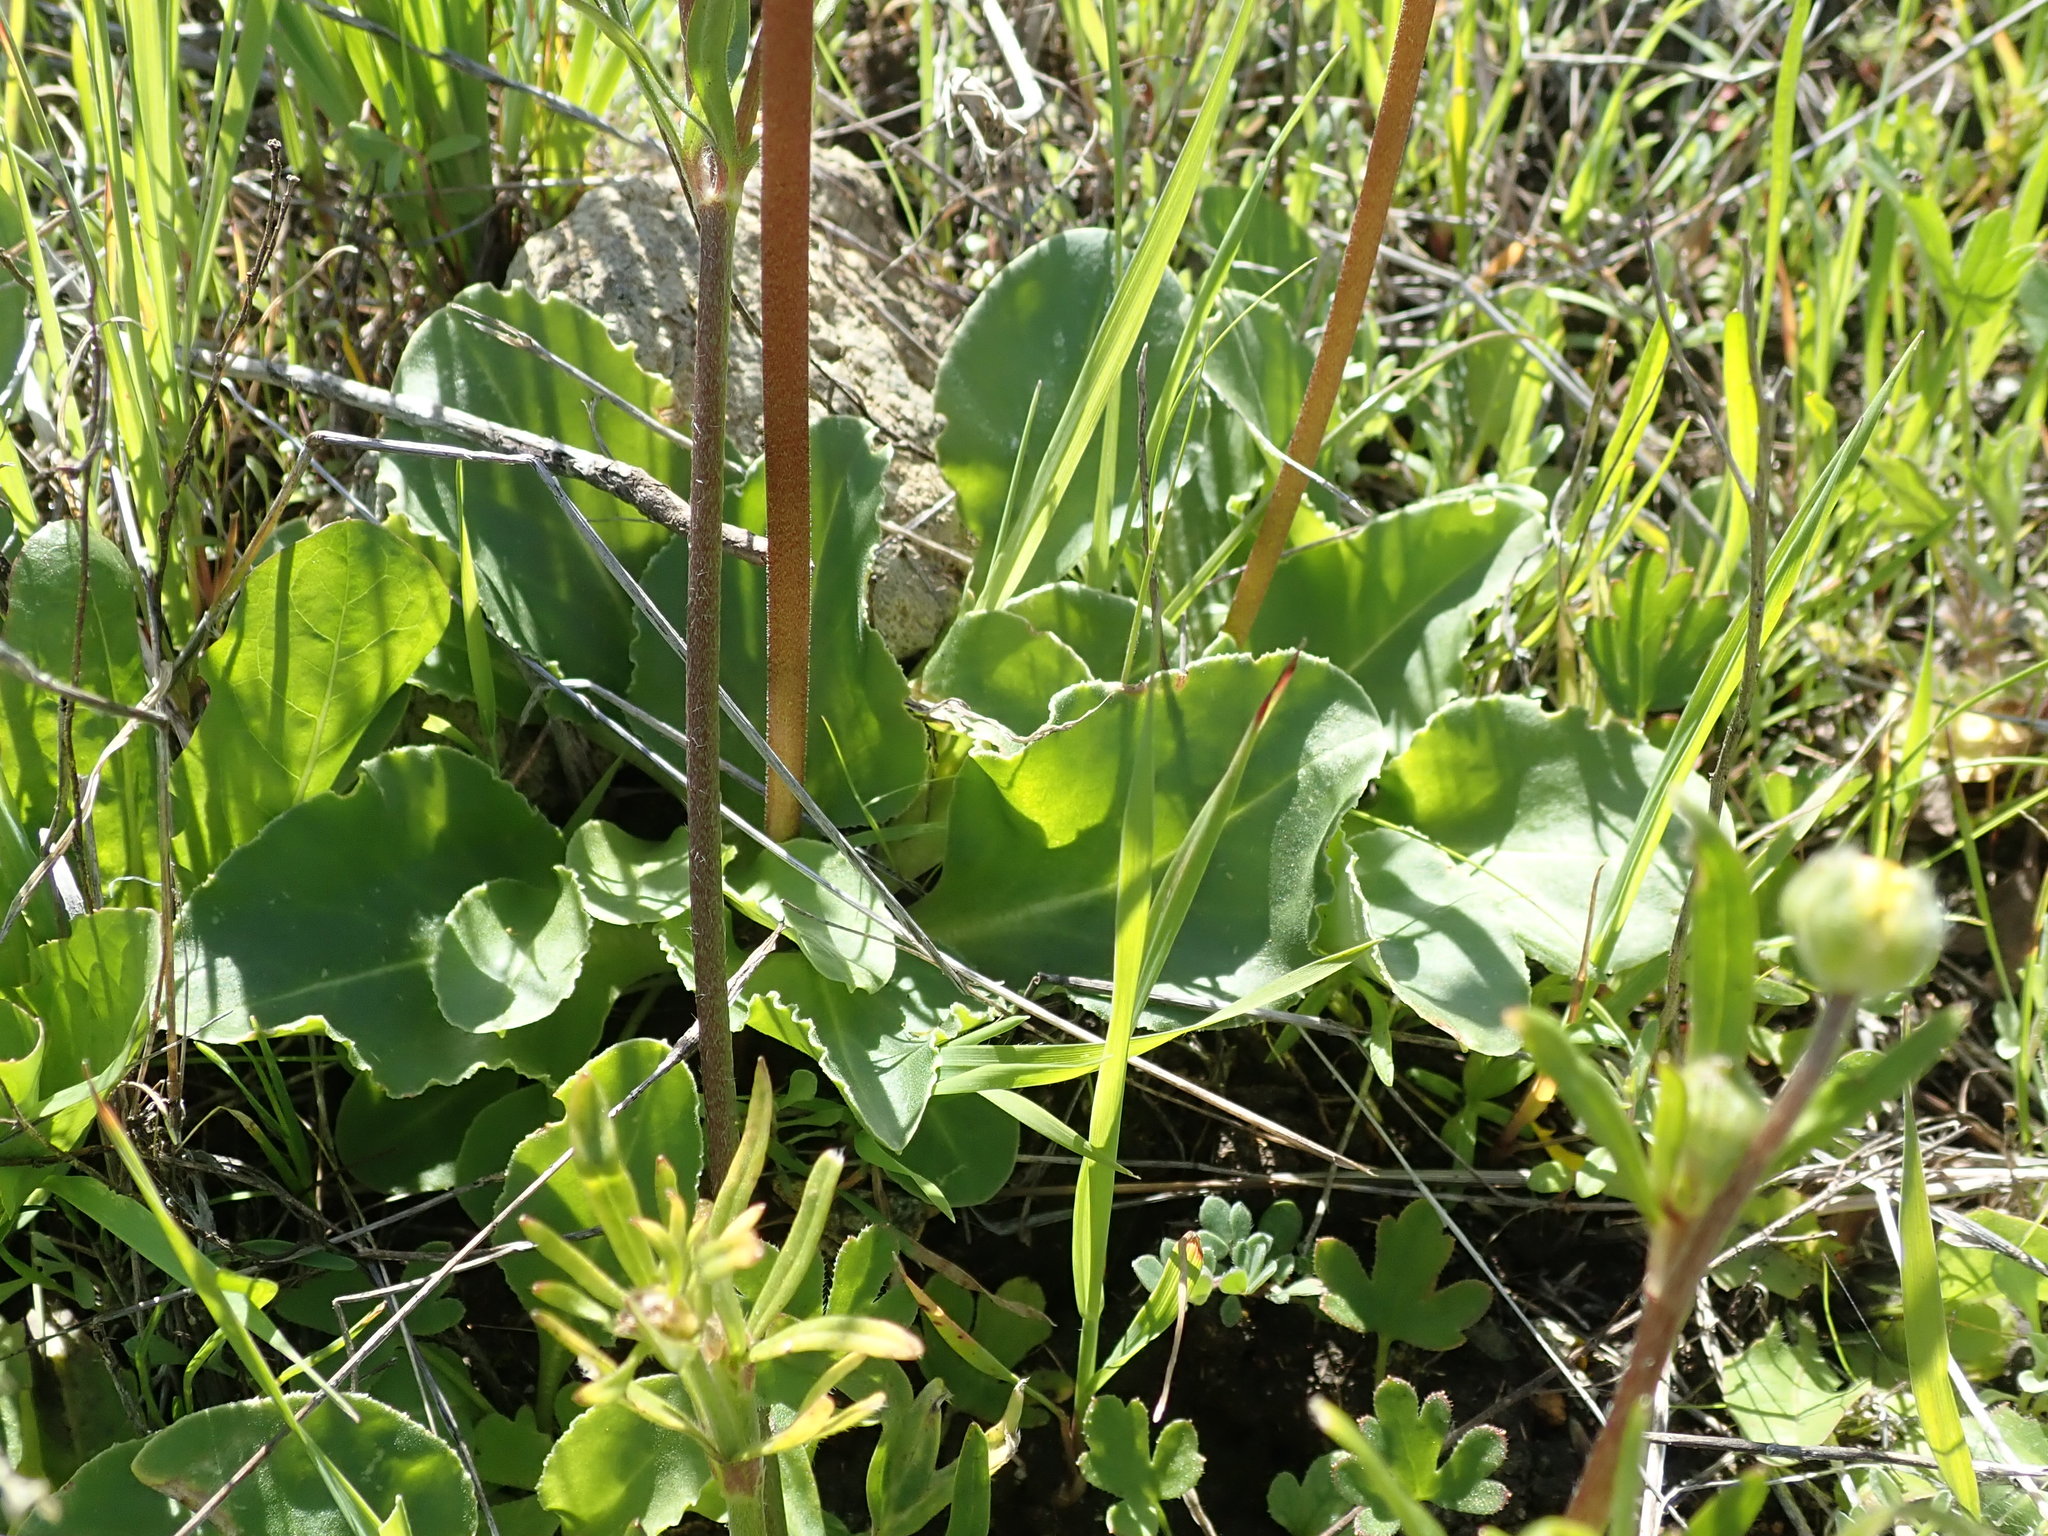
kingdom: Plantae
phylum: Tracheophyta
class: Magnoliopsida
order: Ericales
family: Primulaceae
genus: Dodecatheon
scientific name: Dodecatheon hendersonii
